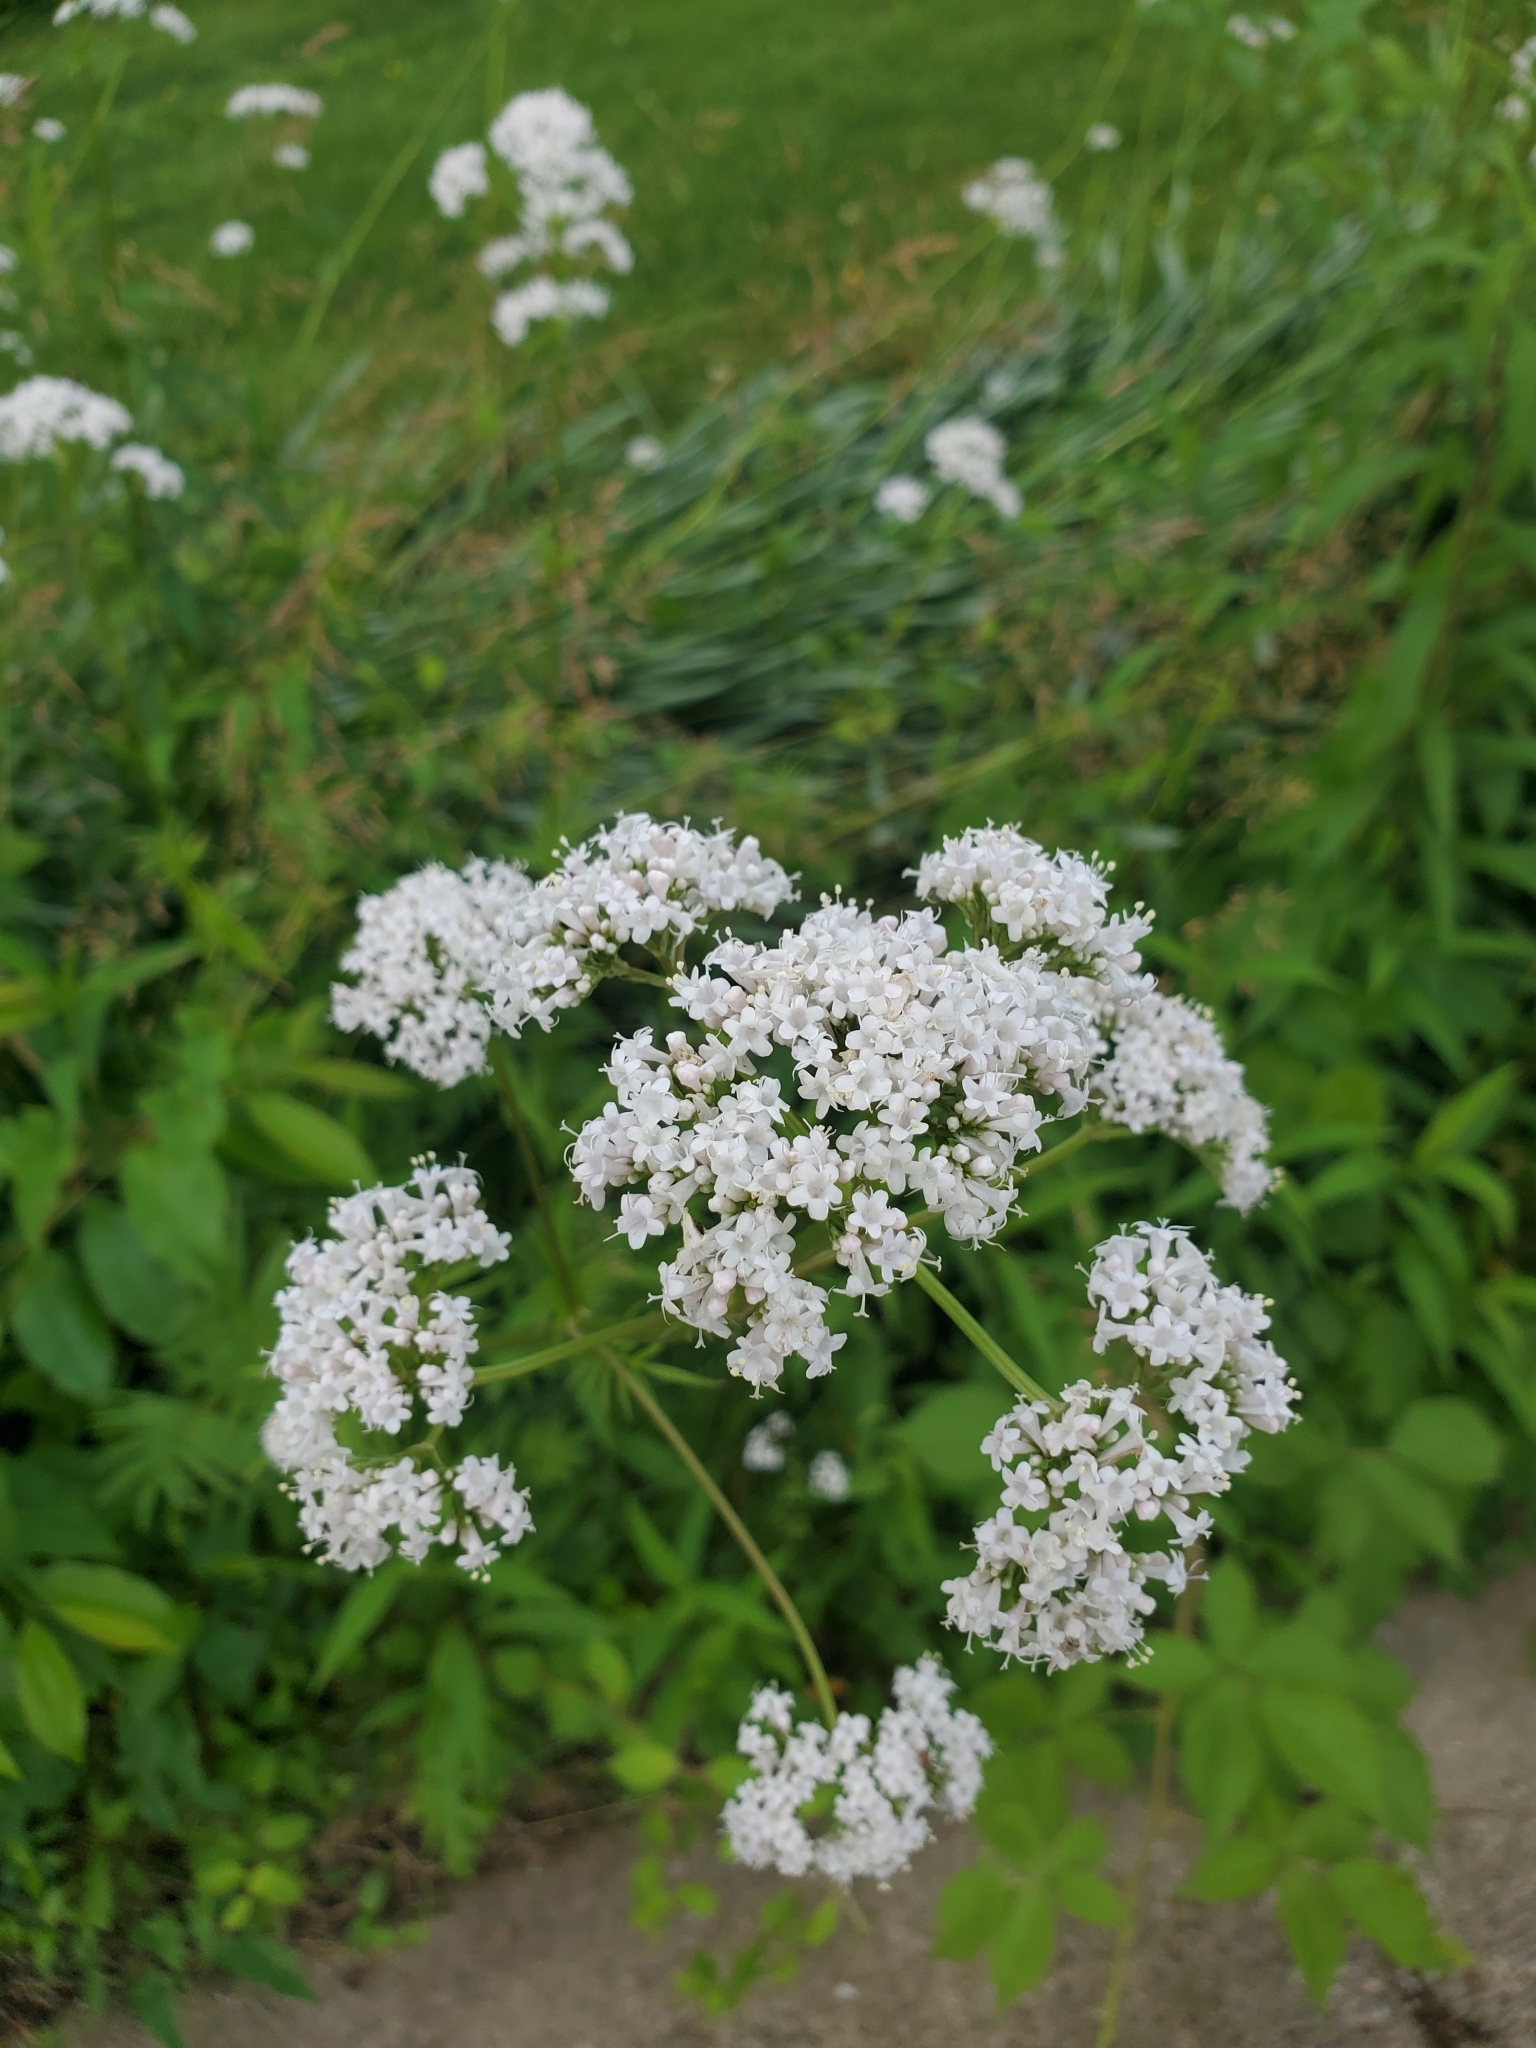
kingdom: Plantae
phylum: Tracheophyta
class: Magnoliopsida
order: Dipsacales
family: Caprifoliaceae
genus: Valeriana
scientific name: Valeriana officinalis
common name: Common valerian
